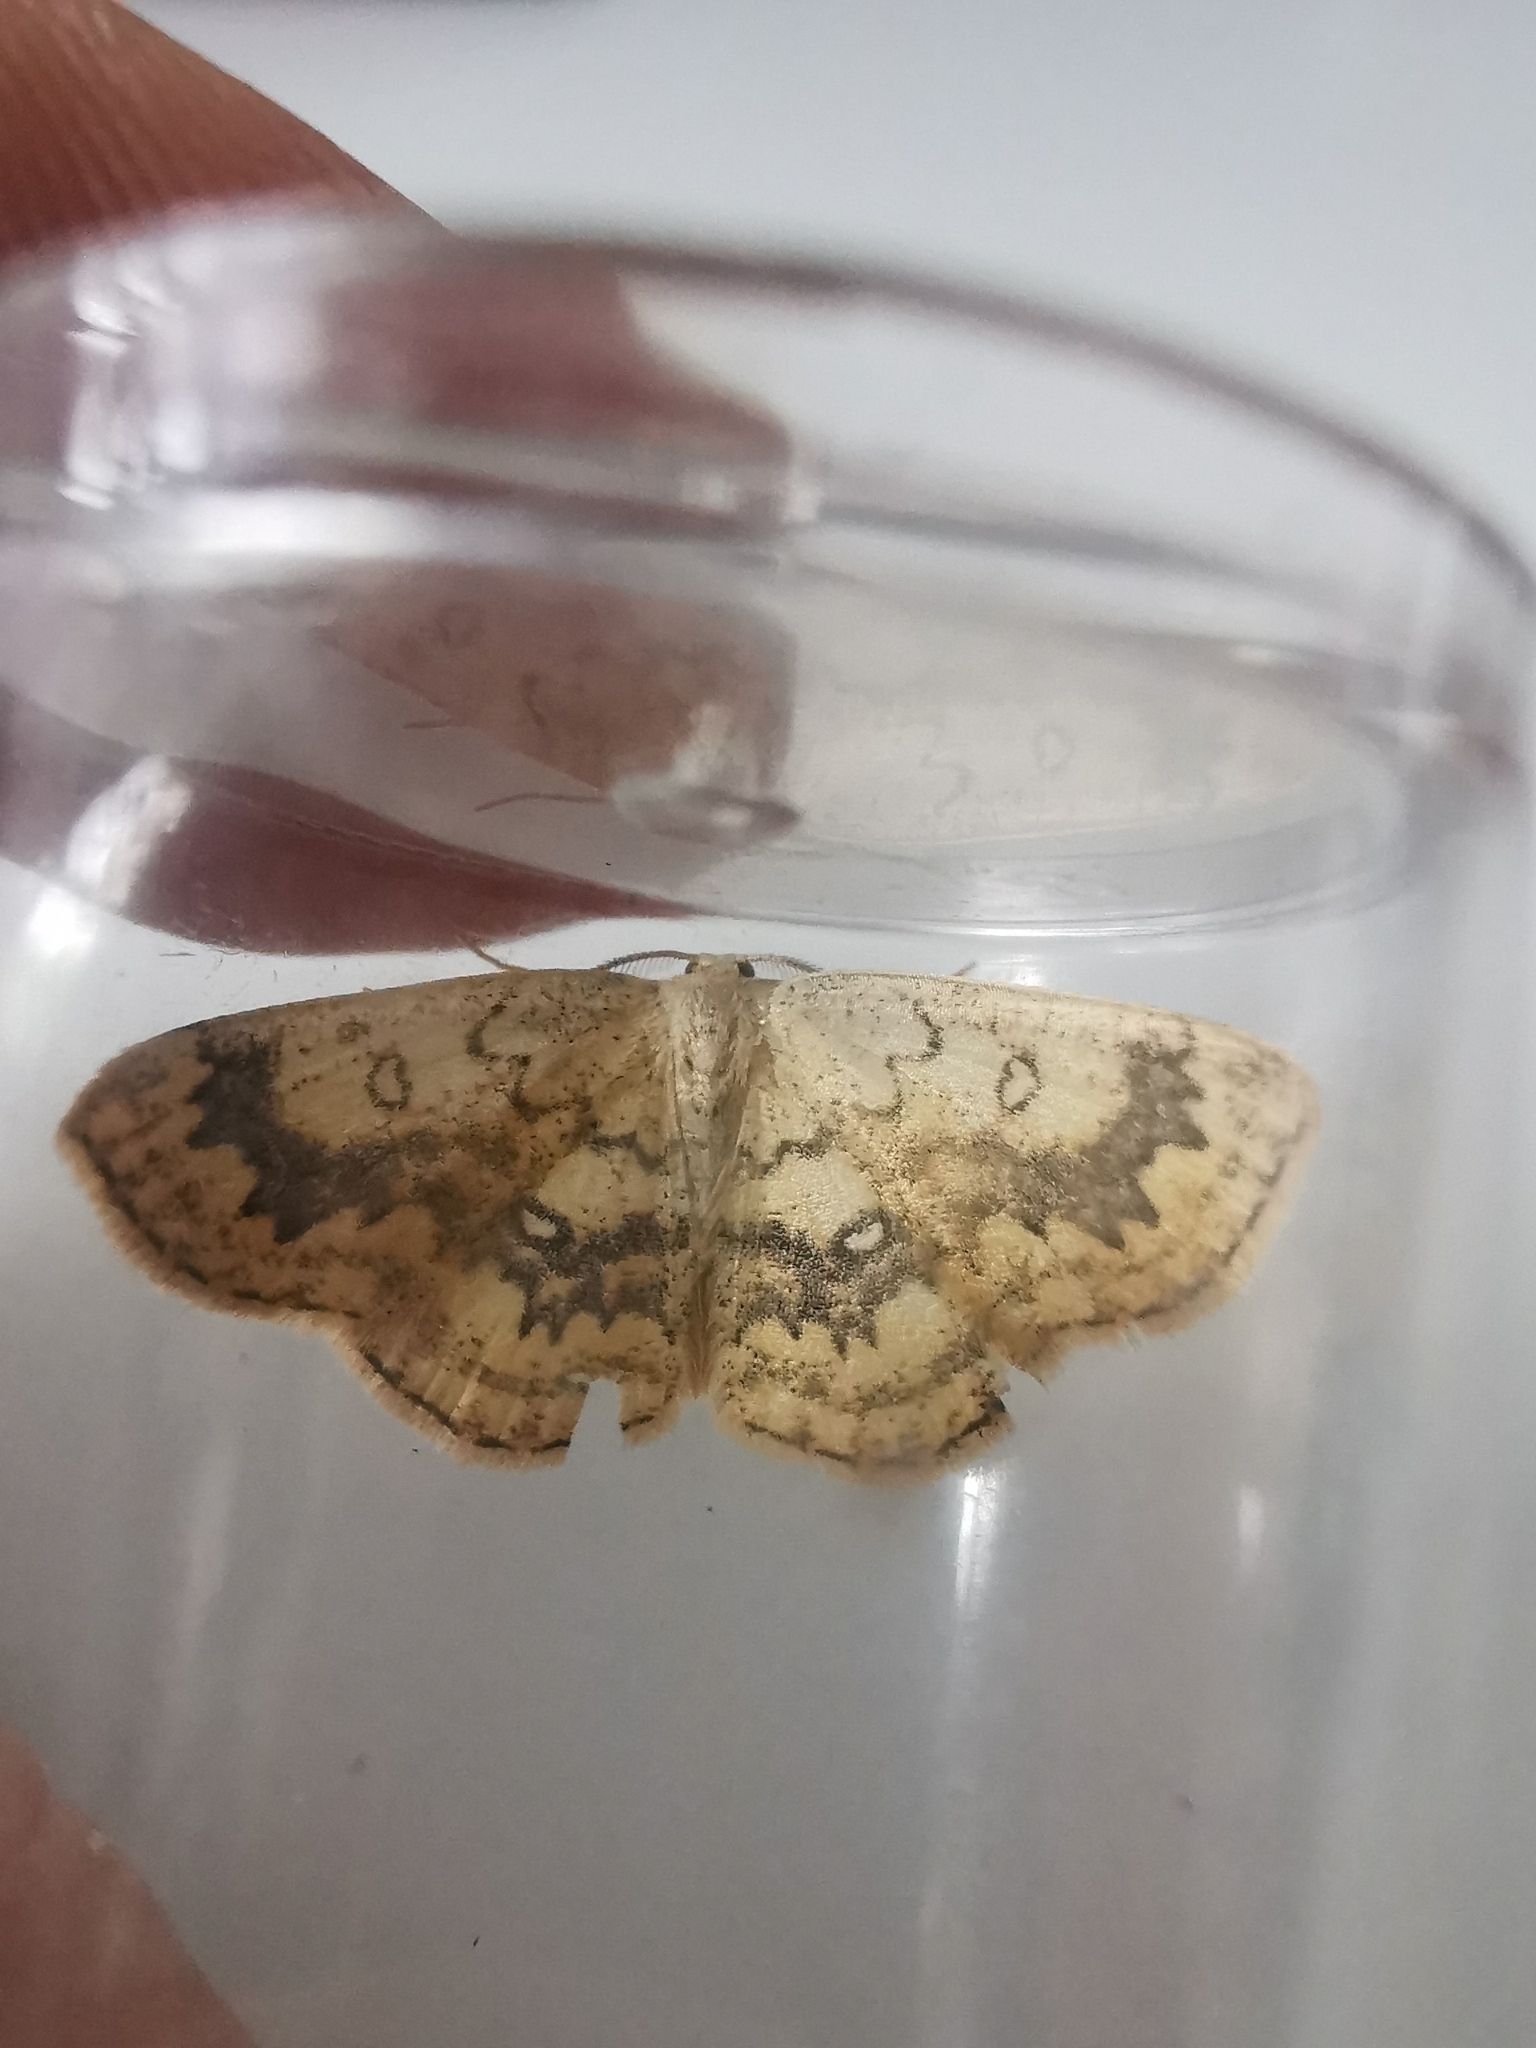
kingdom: Animalia
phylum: Arthropoda
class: Insecta
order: Lepidoptera
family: Geometridae
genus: Cyclophora
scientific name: Cyclophora annularia
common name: Mocha
